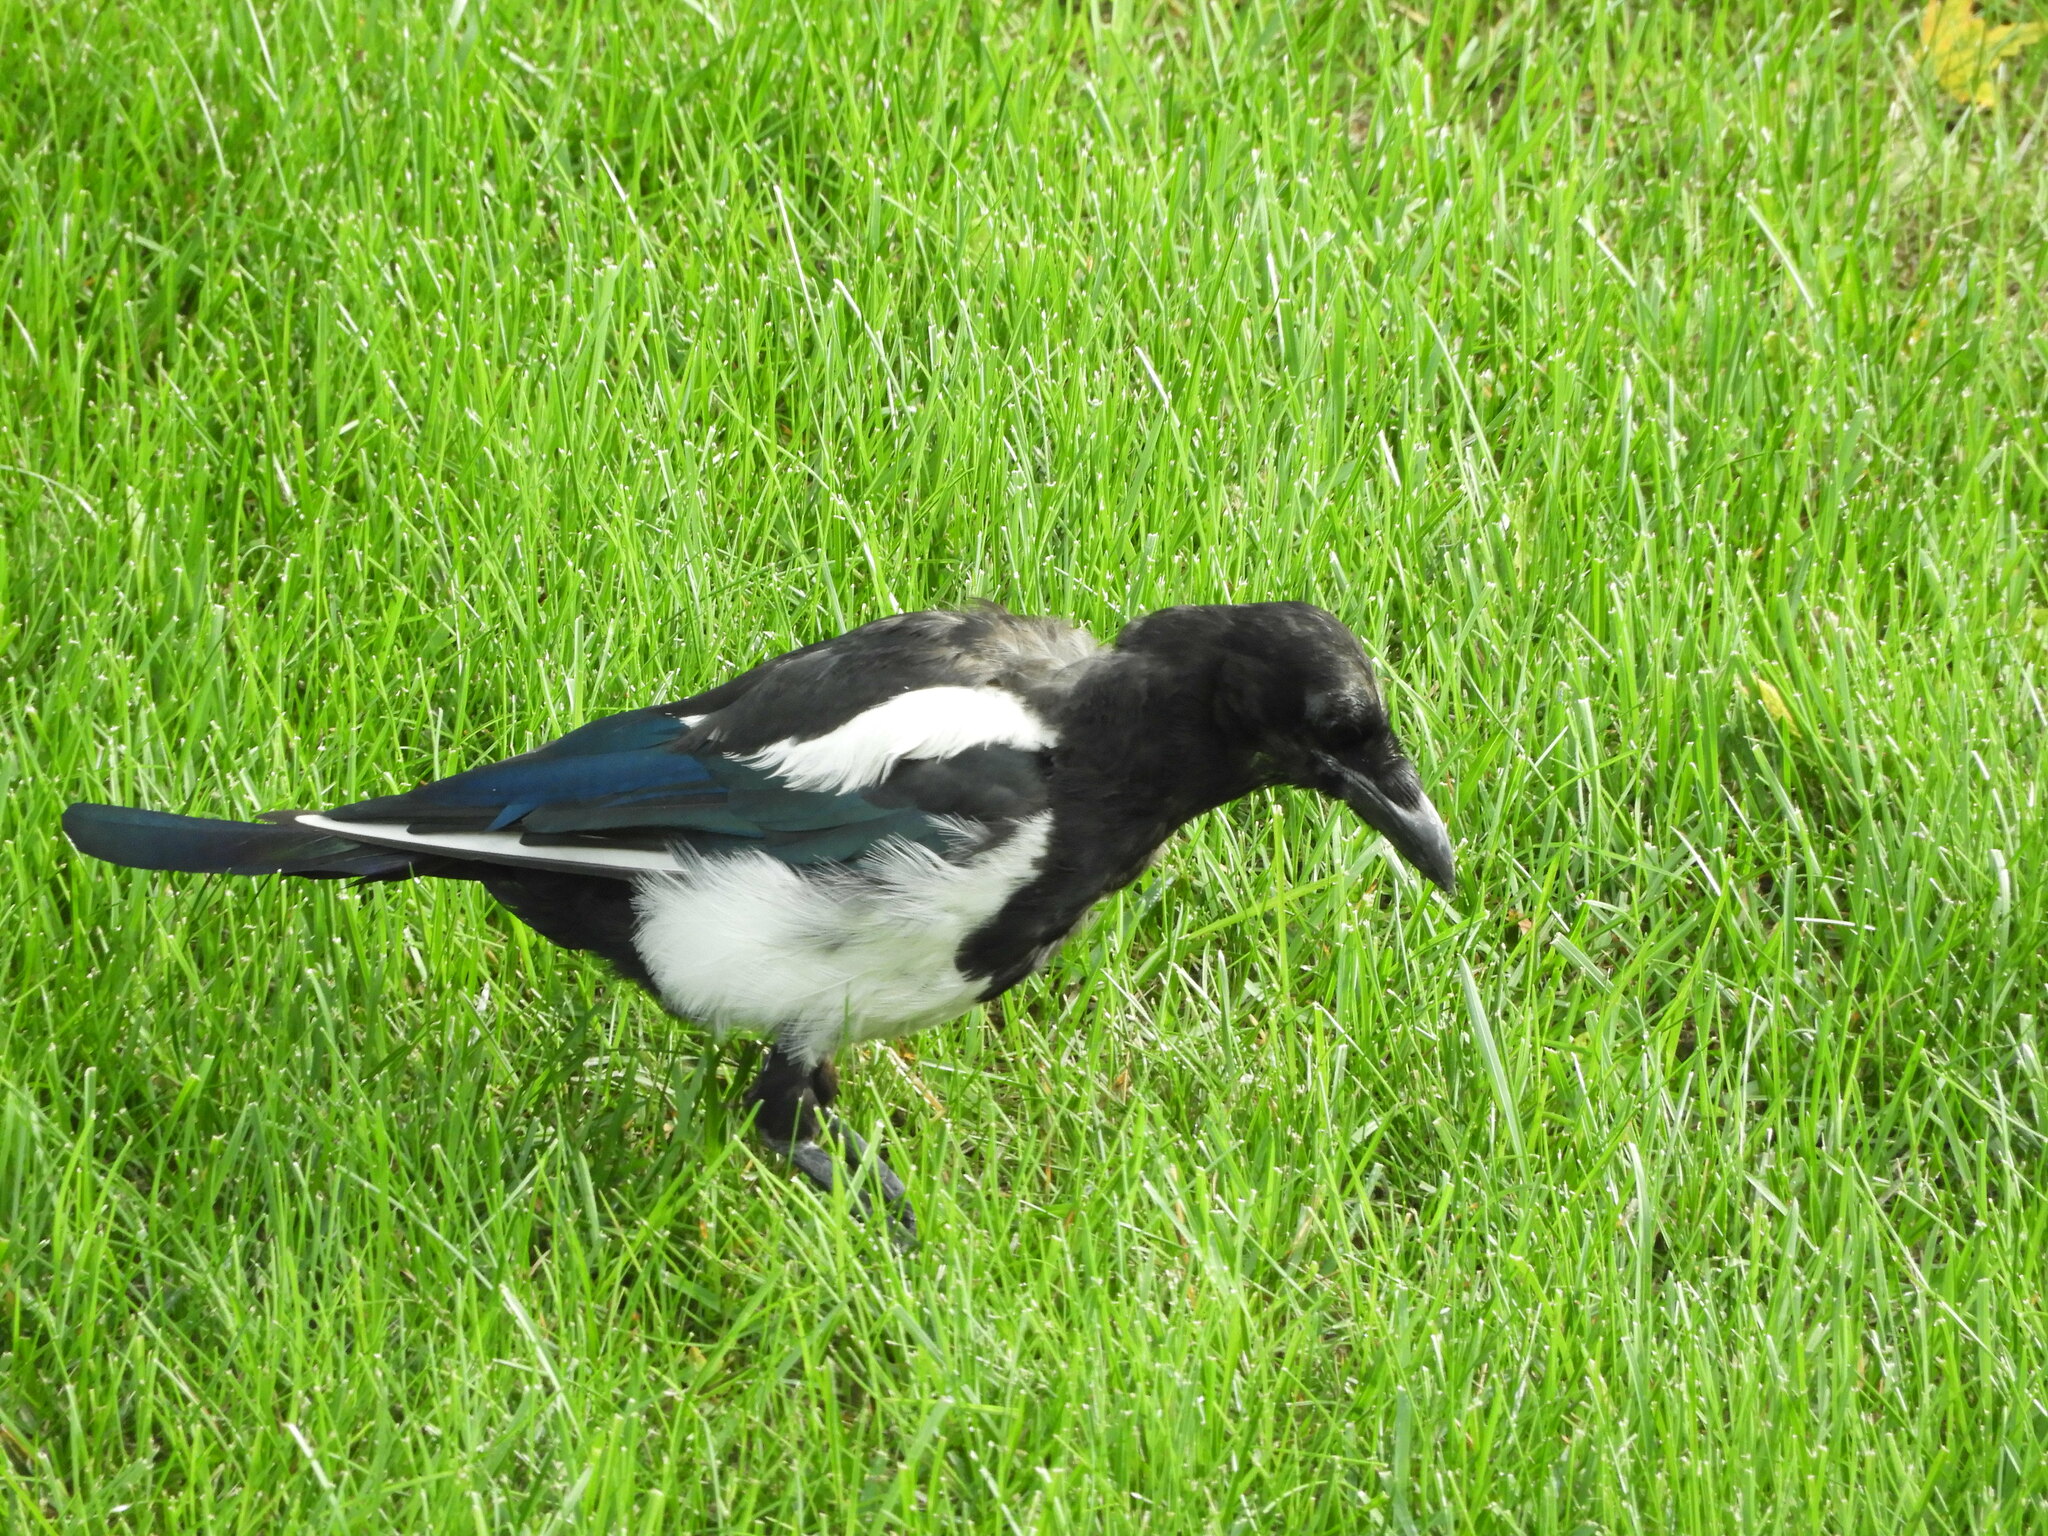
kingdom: Animalia
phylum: Chordata
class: Aves
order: Passeriformes
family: Corvidae
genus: Pica
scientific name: Pica hudsonia
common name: Black-billed magpie
